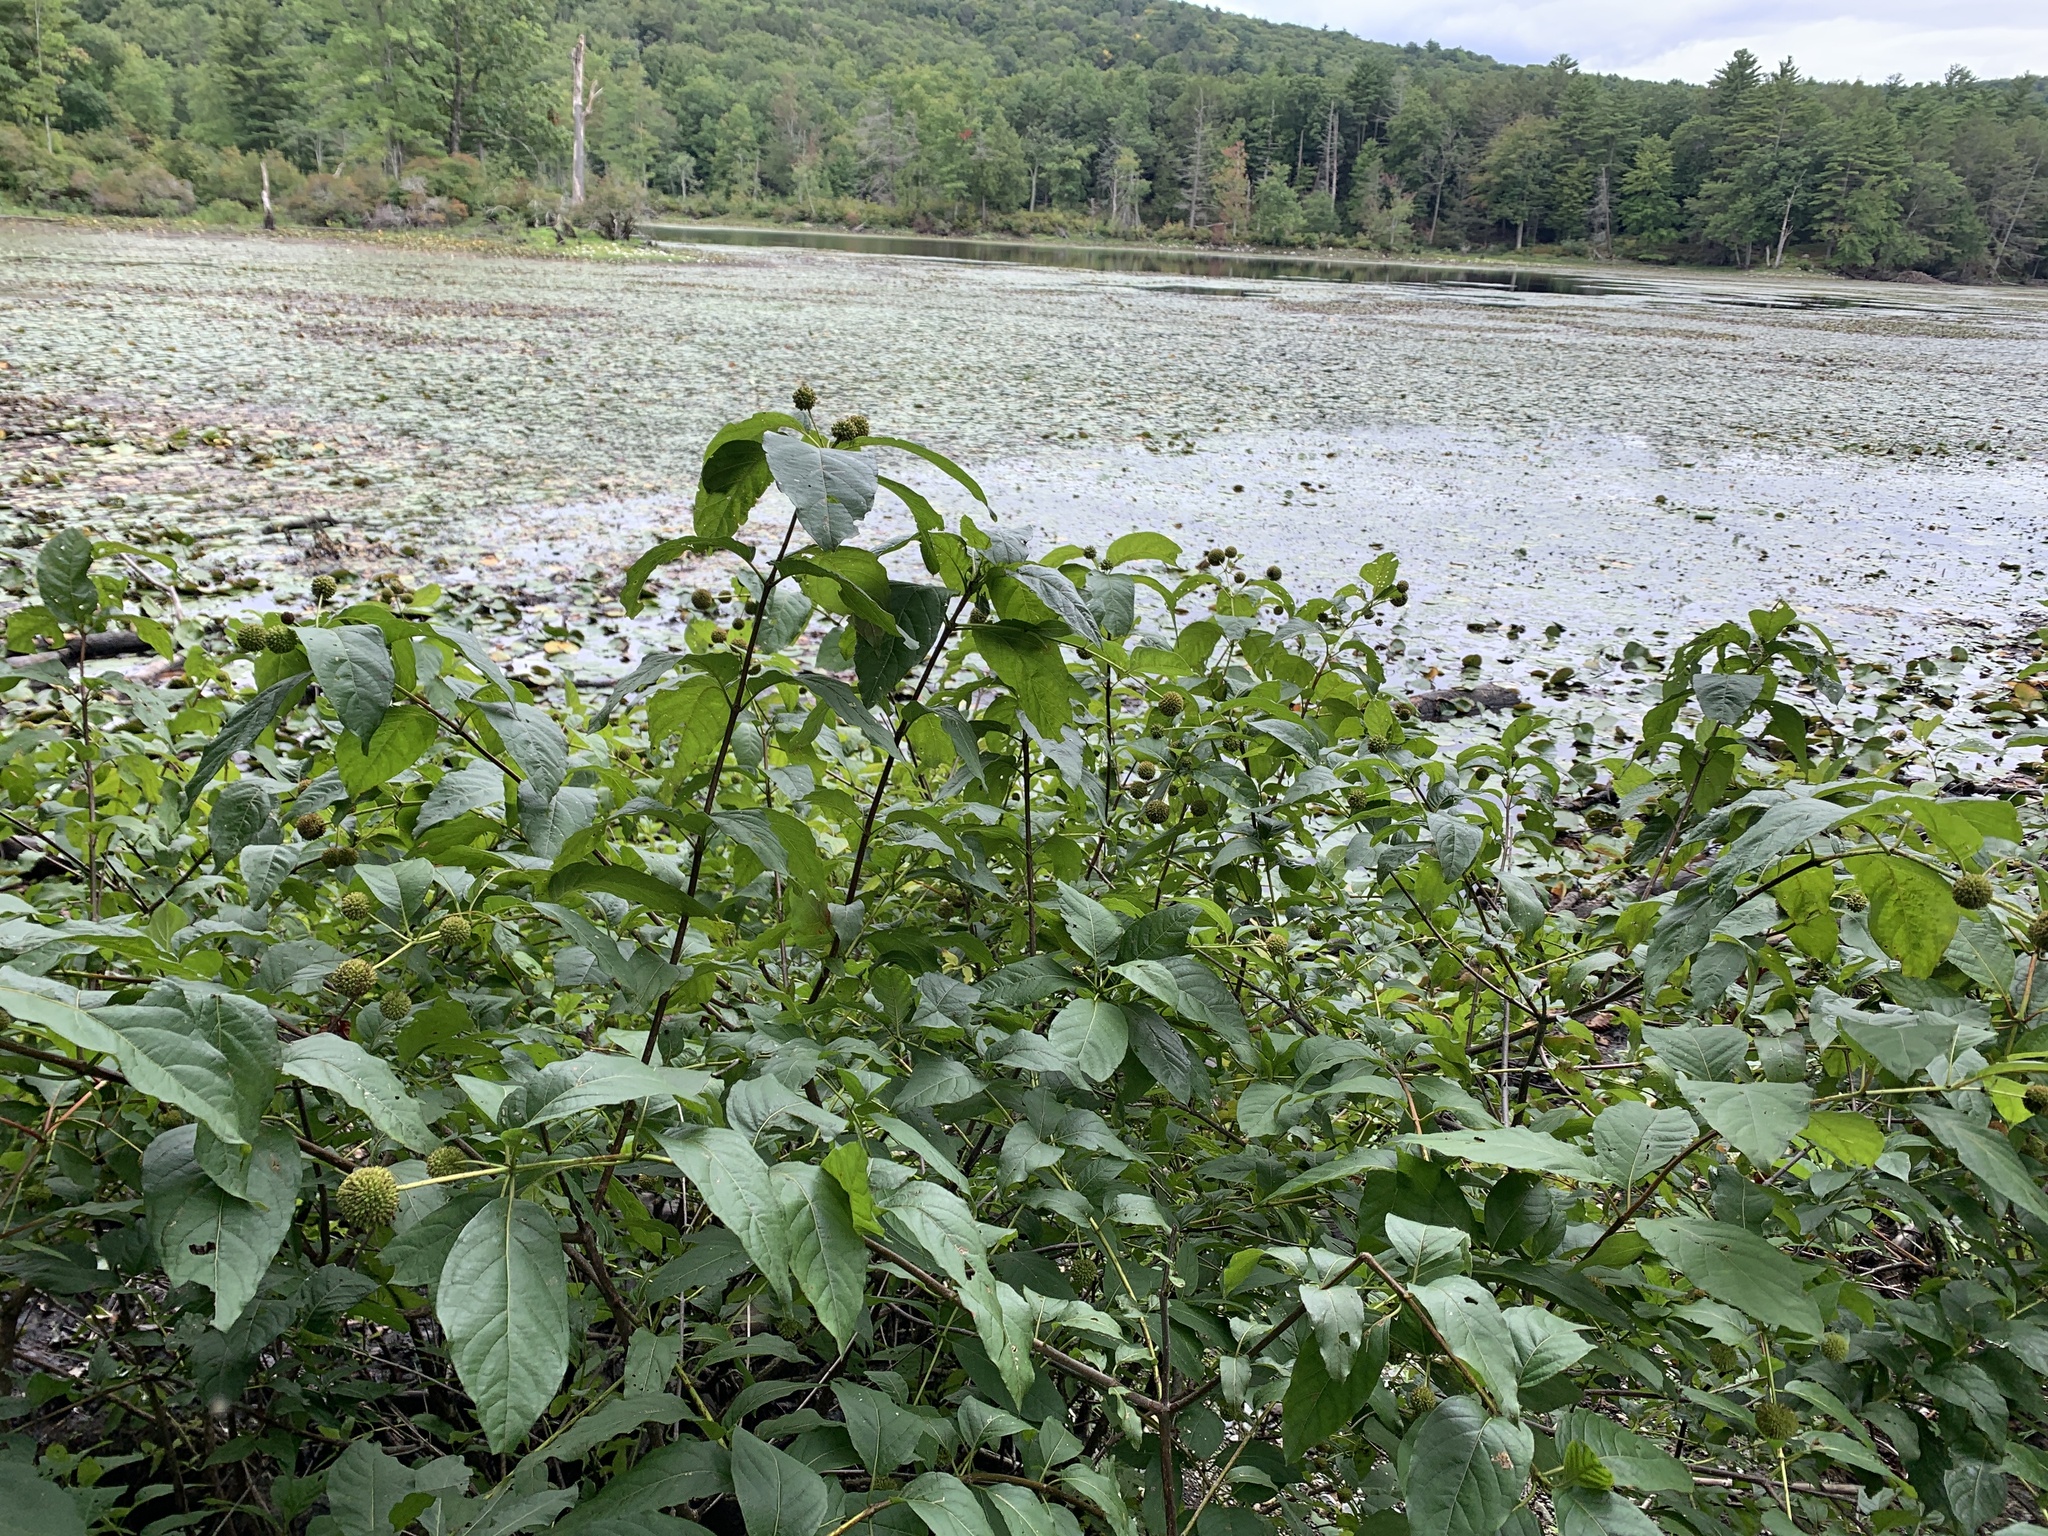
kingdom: Plantae
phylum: Tracheophyta
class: Magnoliopsida
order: Gentianales
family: Rubiaceae
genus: Cephalanthus
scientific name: Cephalanthus occidentalis
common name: Button-willow
